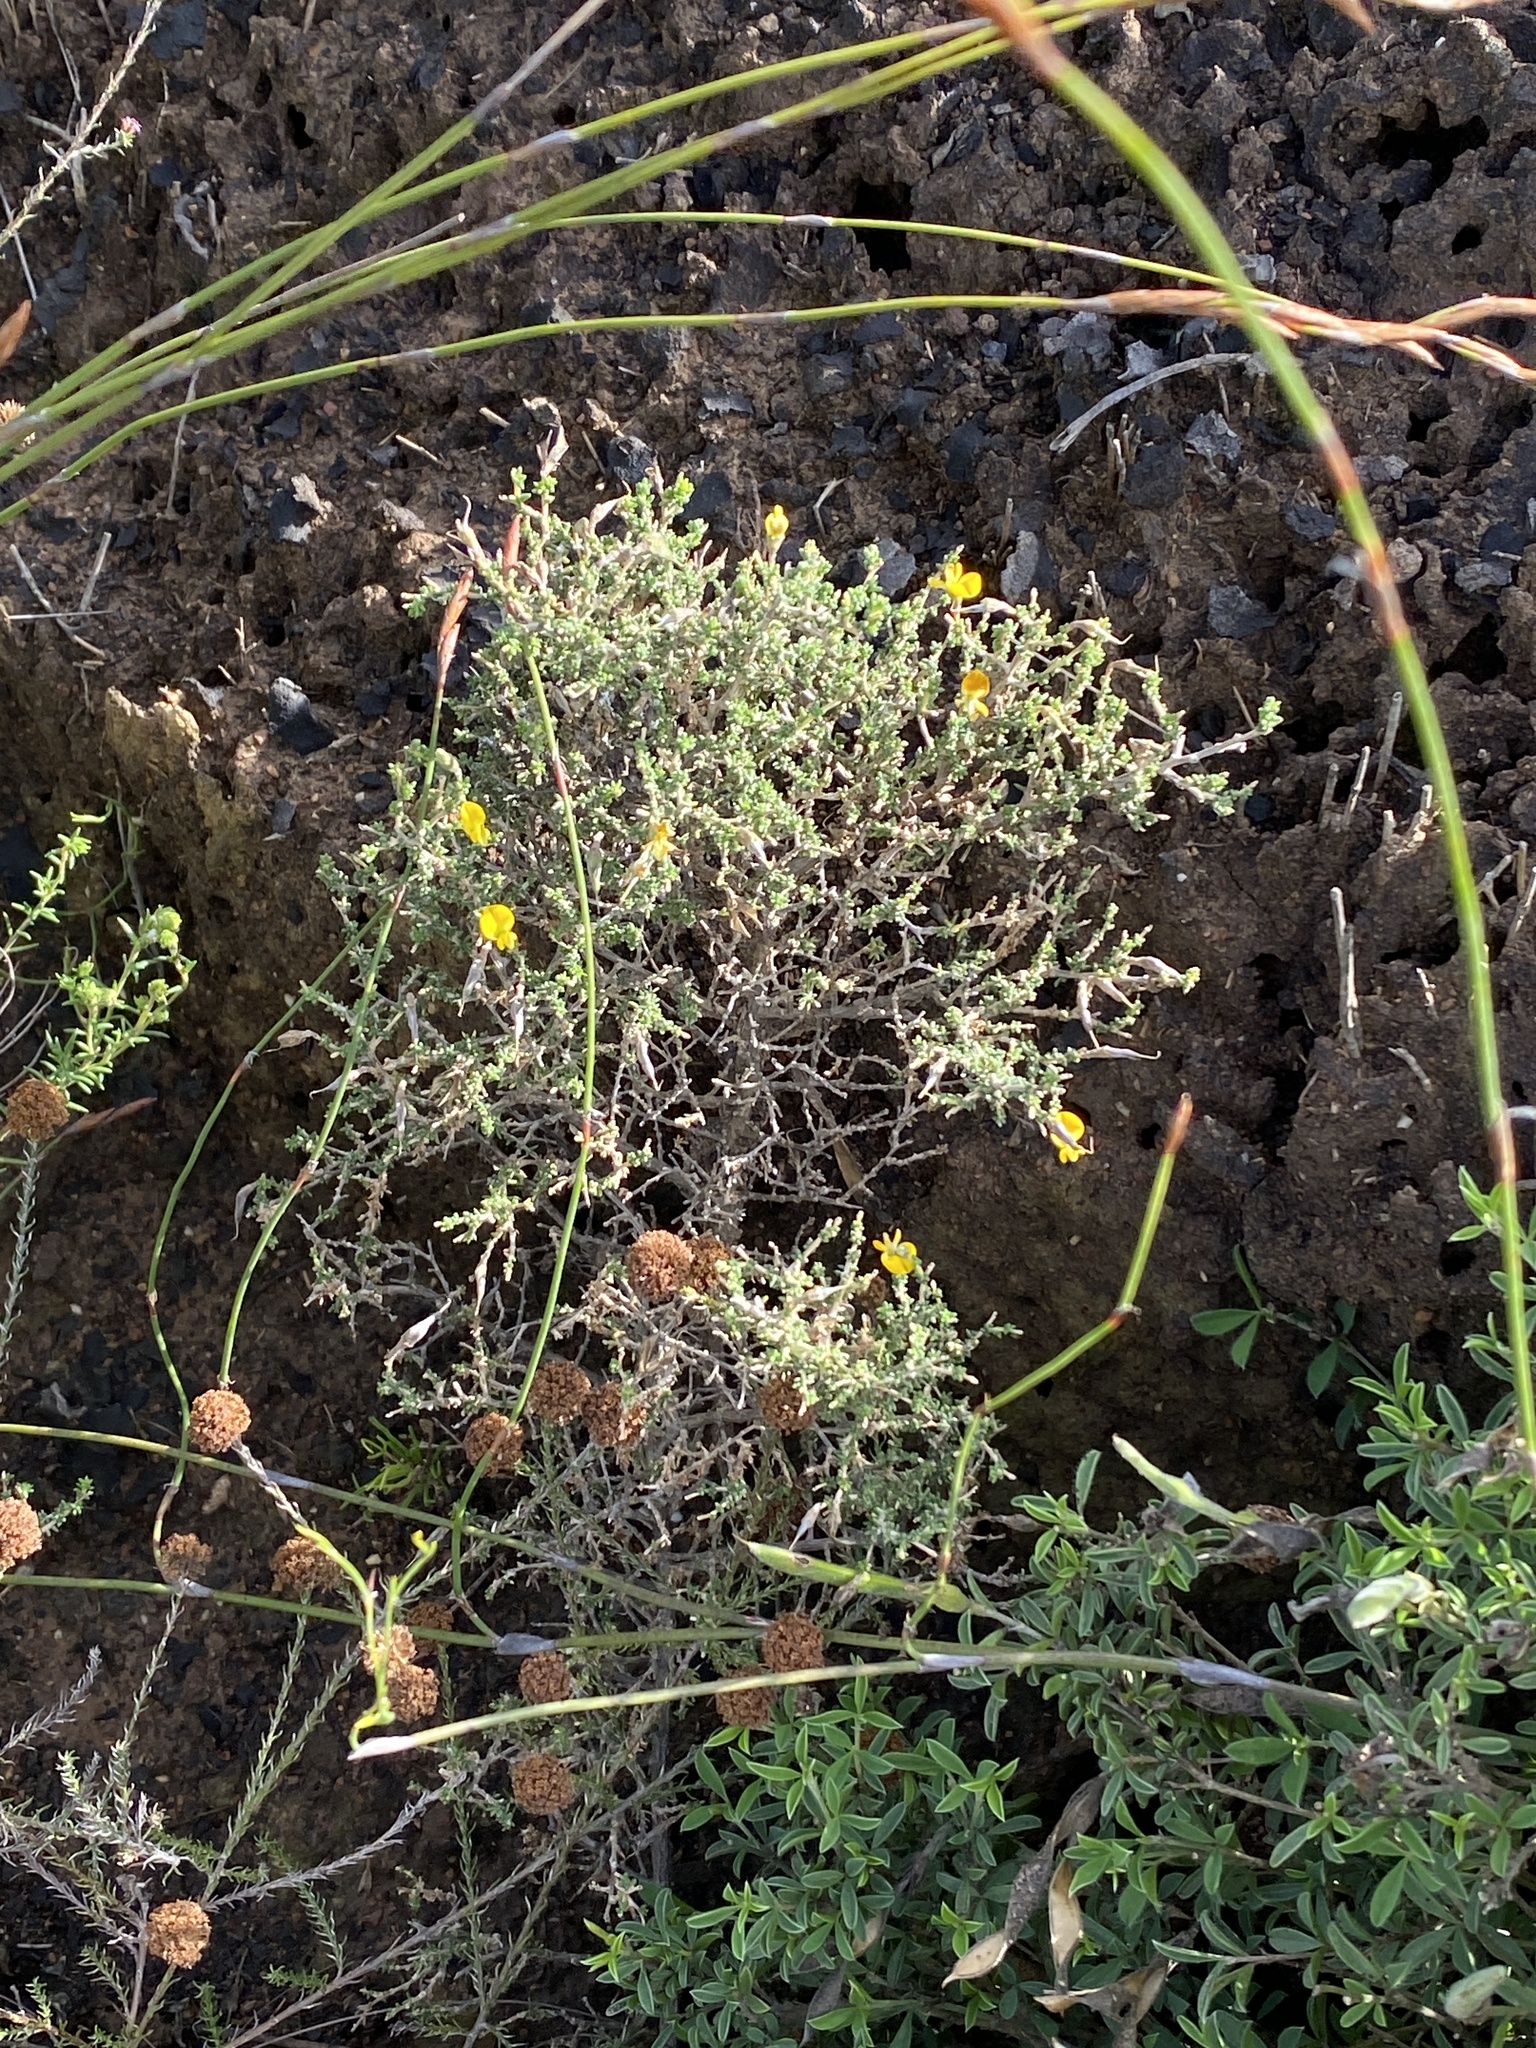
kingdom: Plantae
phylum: Tracheophyta
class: Magnoliopsida
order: Fabales
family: Fabaceae
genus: Aspalathus
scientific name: Aspalathus divaricata
